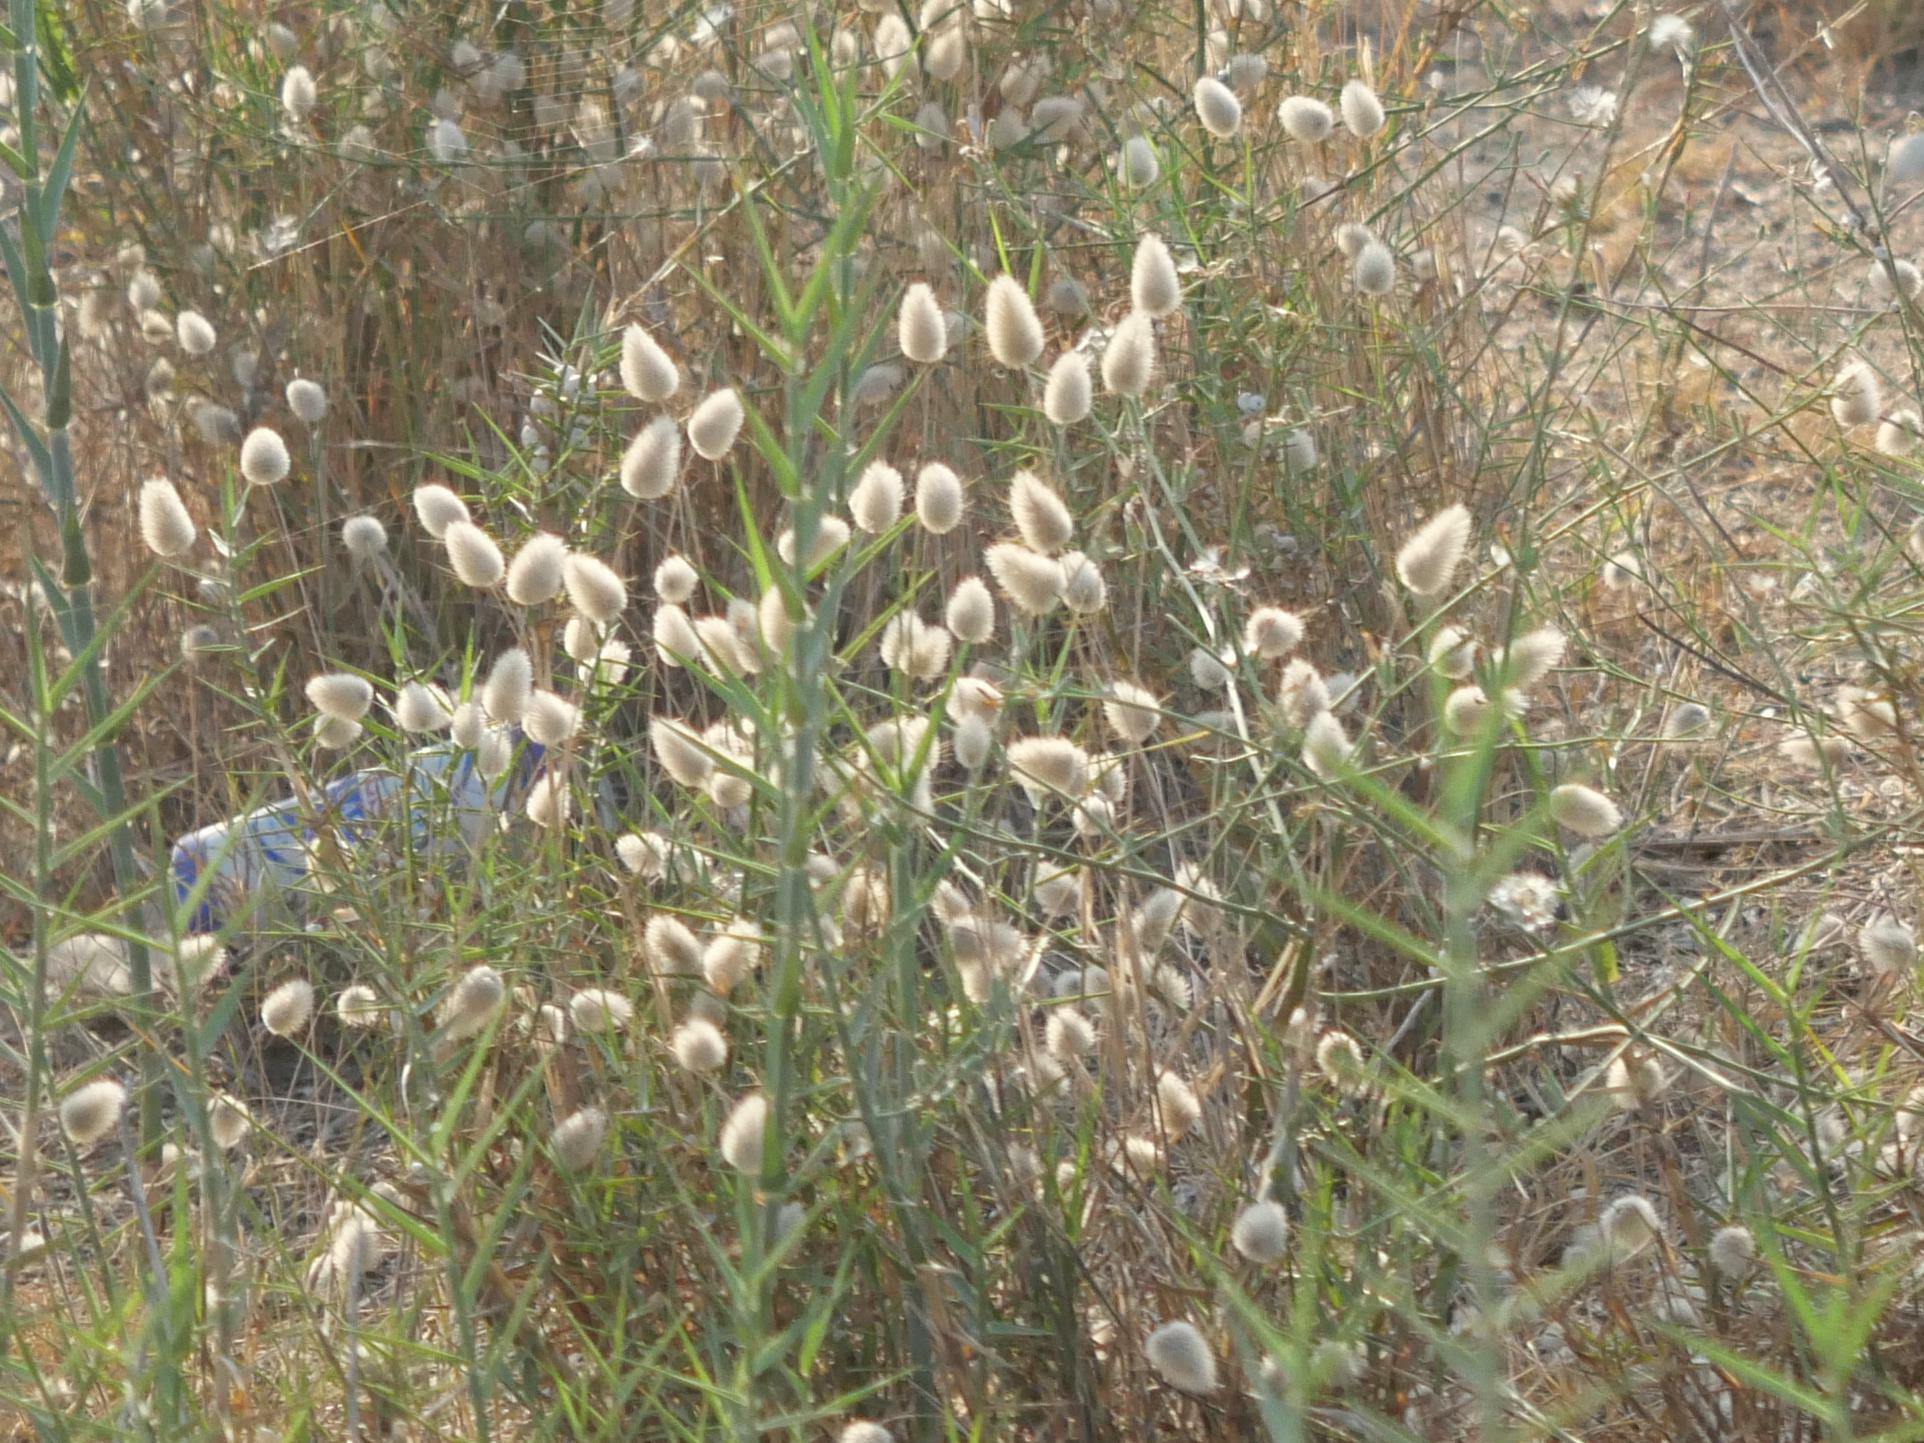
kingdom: Plantae
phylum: Tracheophyta
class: Liliopsida
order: Poales
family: Poaceae
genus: Lagurus
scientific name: Lagurus ovatus
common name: Hare's-tail
